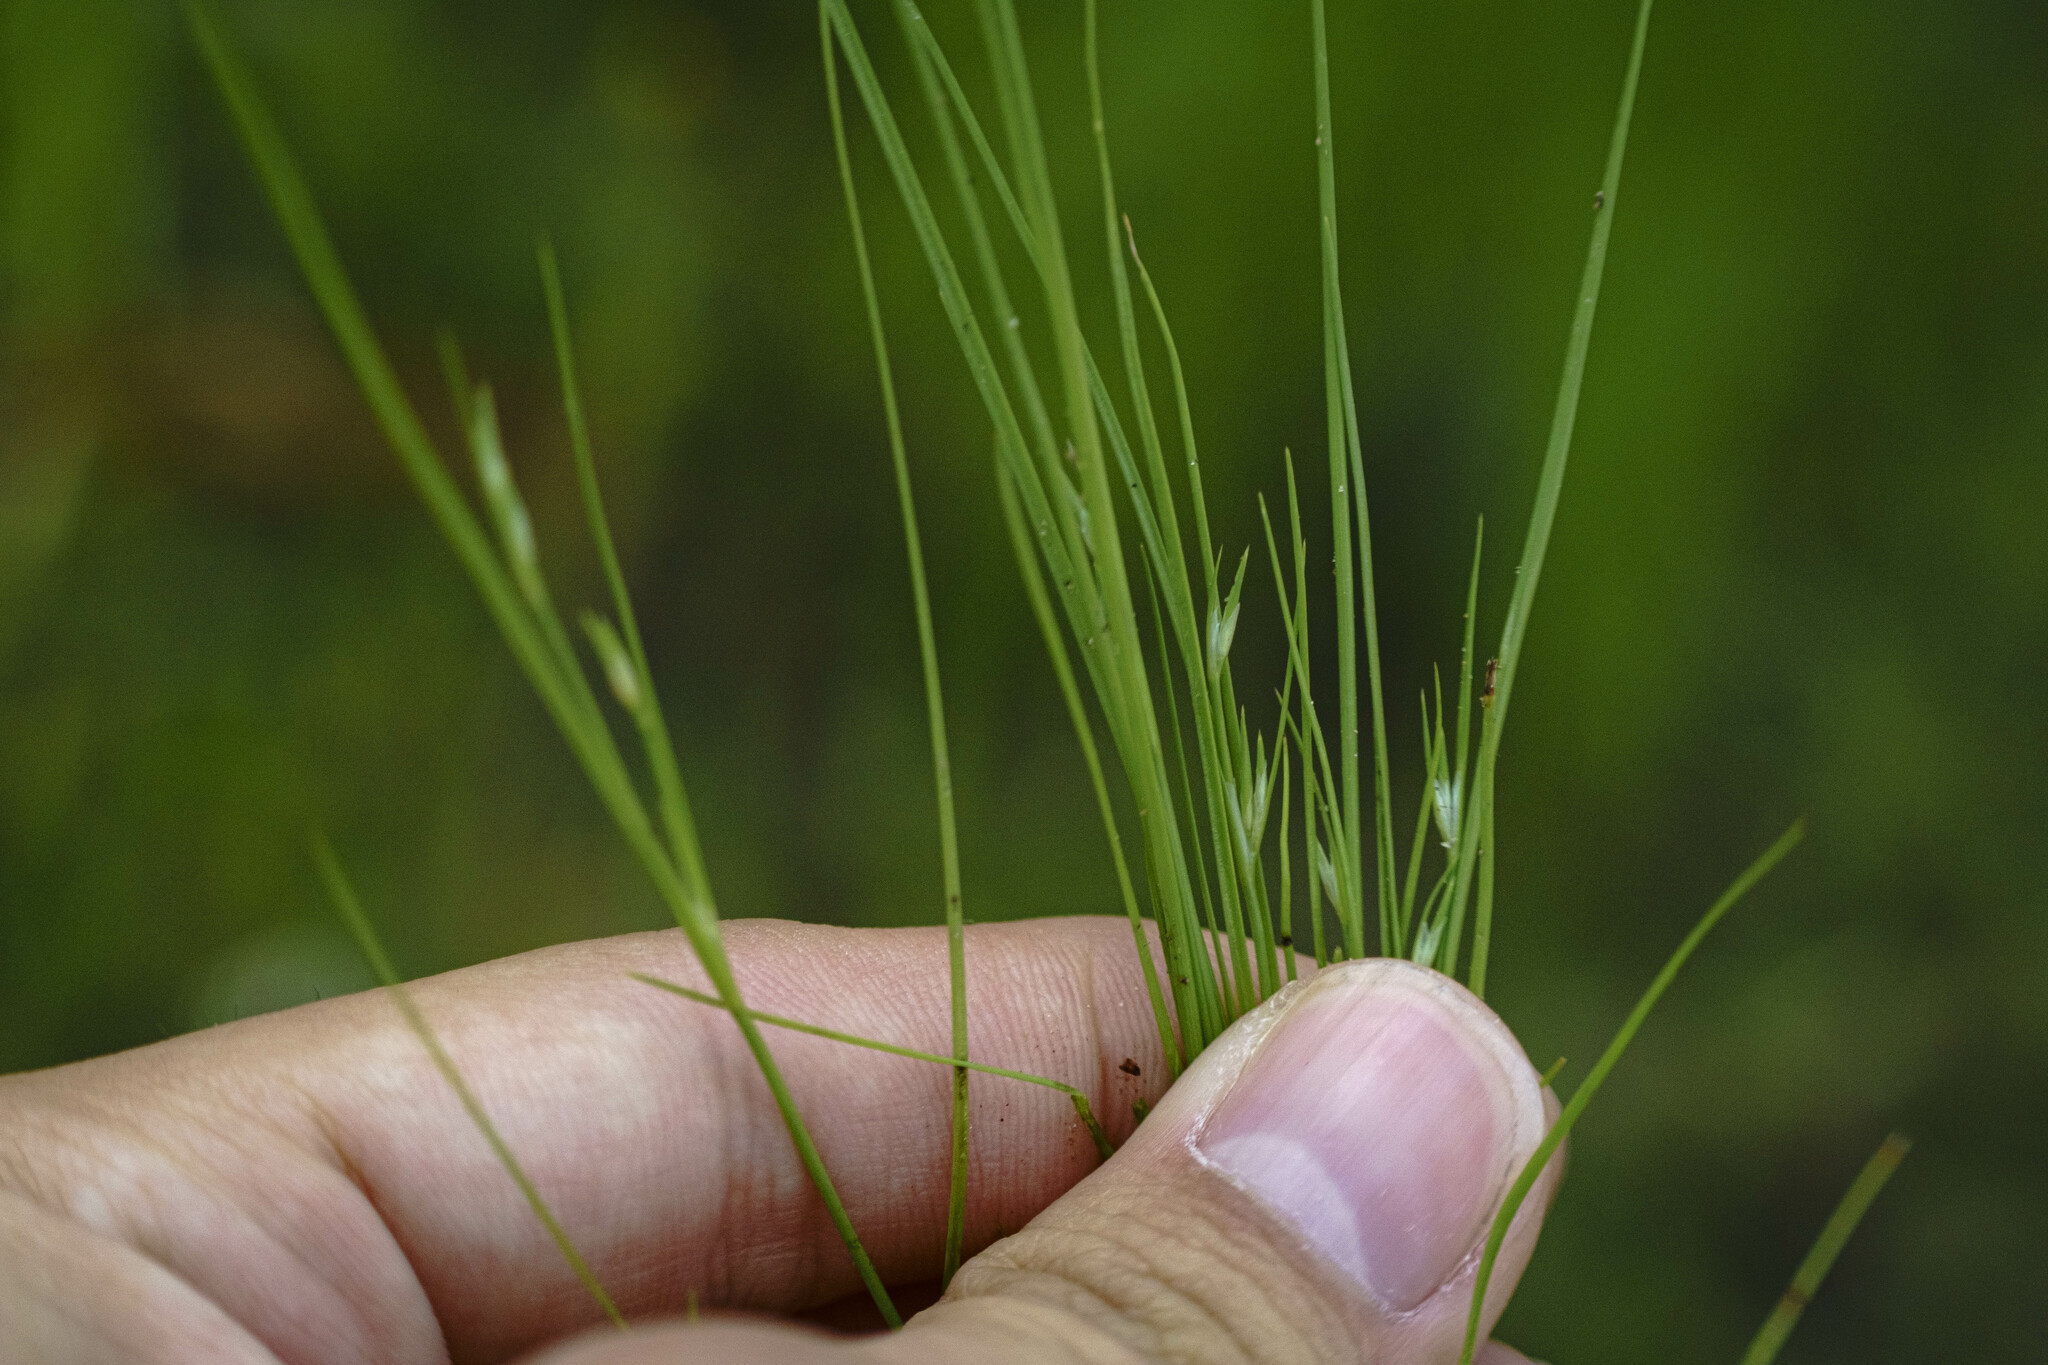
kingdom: Plantae
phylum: Tracheophyta
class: Liliopsida
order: Poales
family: Juncaceae
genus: Juncus
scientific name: Juncus bufonius
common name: Toad rush
